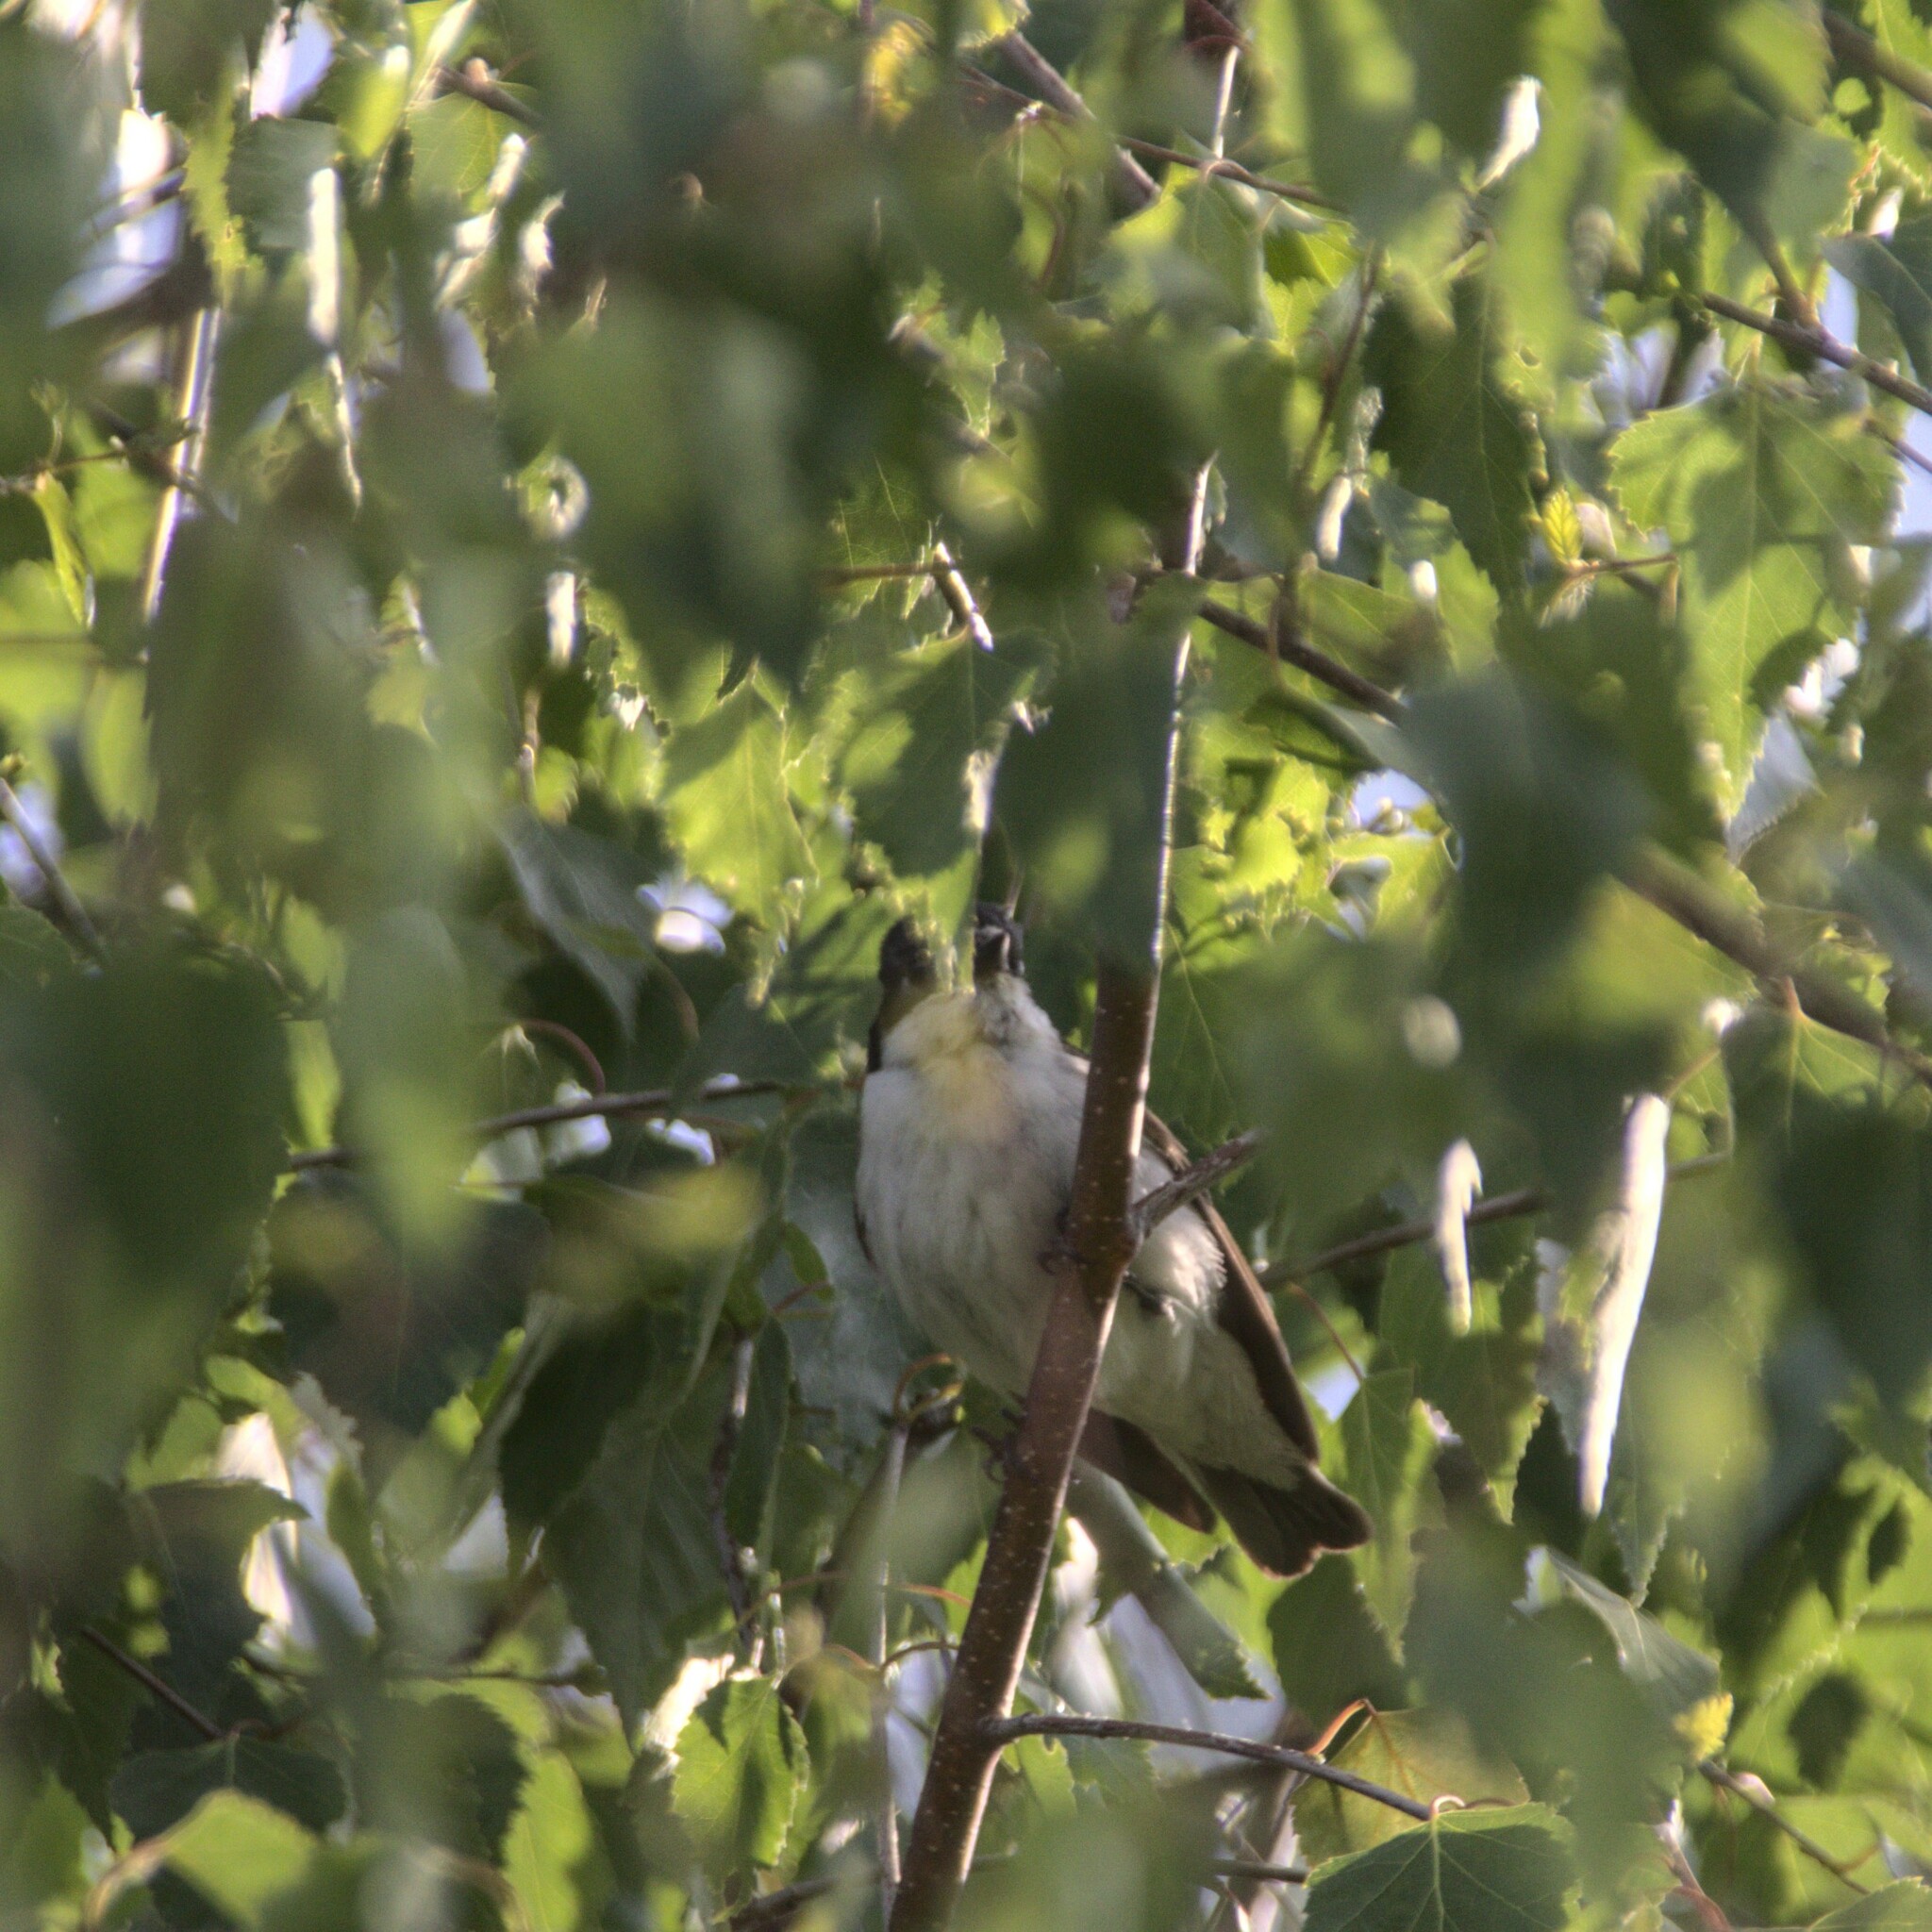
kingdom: Animalia
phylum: Chordata
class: Aves
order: Passeriformes
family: Muscicapidae
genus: Ficedula
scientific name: Ficedula hypoleuca
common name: European pied flycatcher
